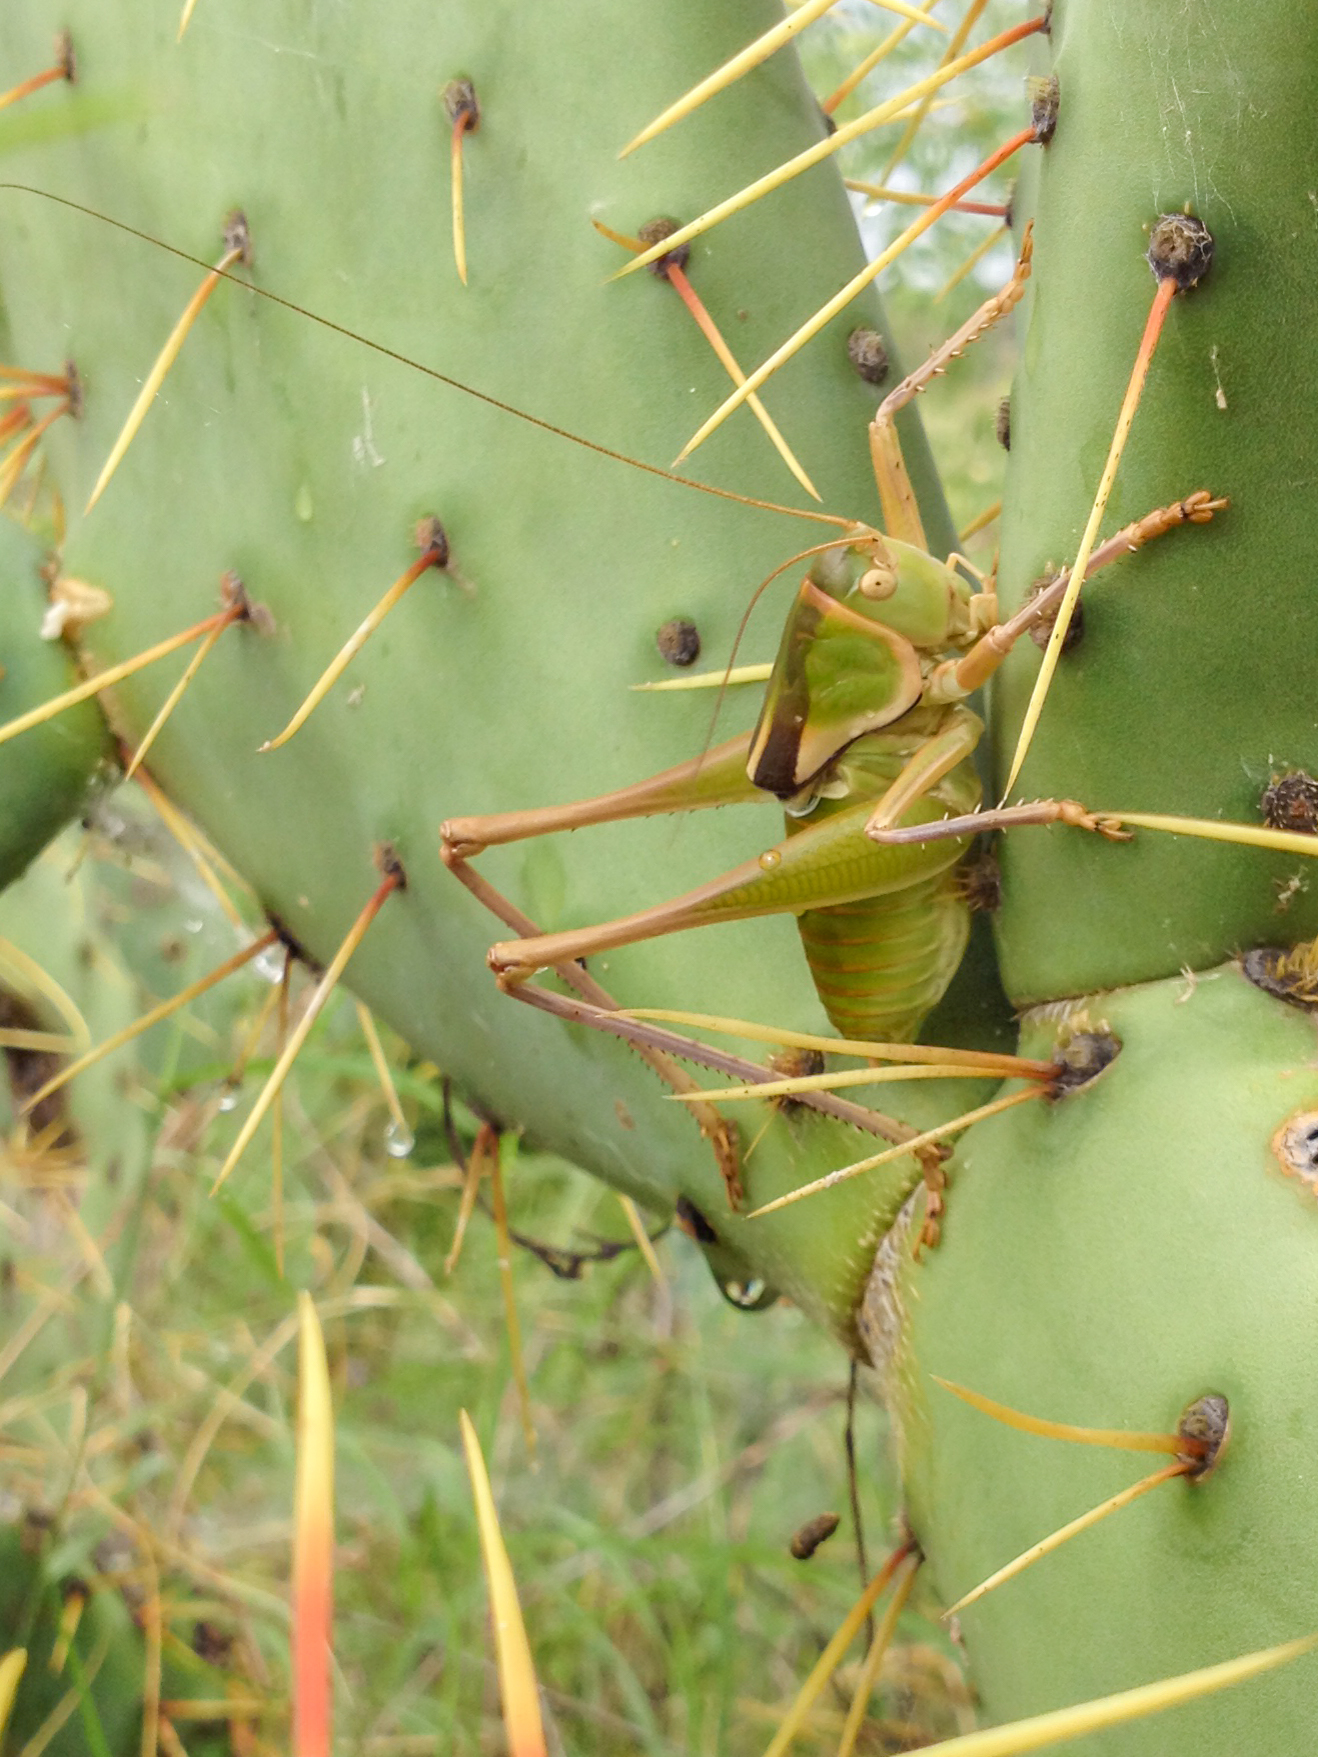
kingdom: Animalia
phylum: Arthropoda
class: Insecta
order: Orthoptera
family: Tettigoniidae
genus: Pediodectes
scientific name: Pediodectes haldemanii
